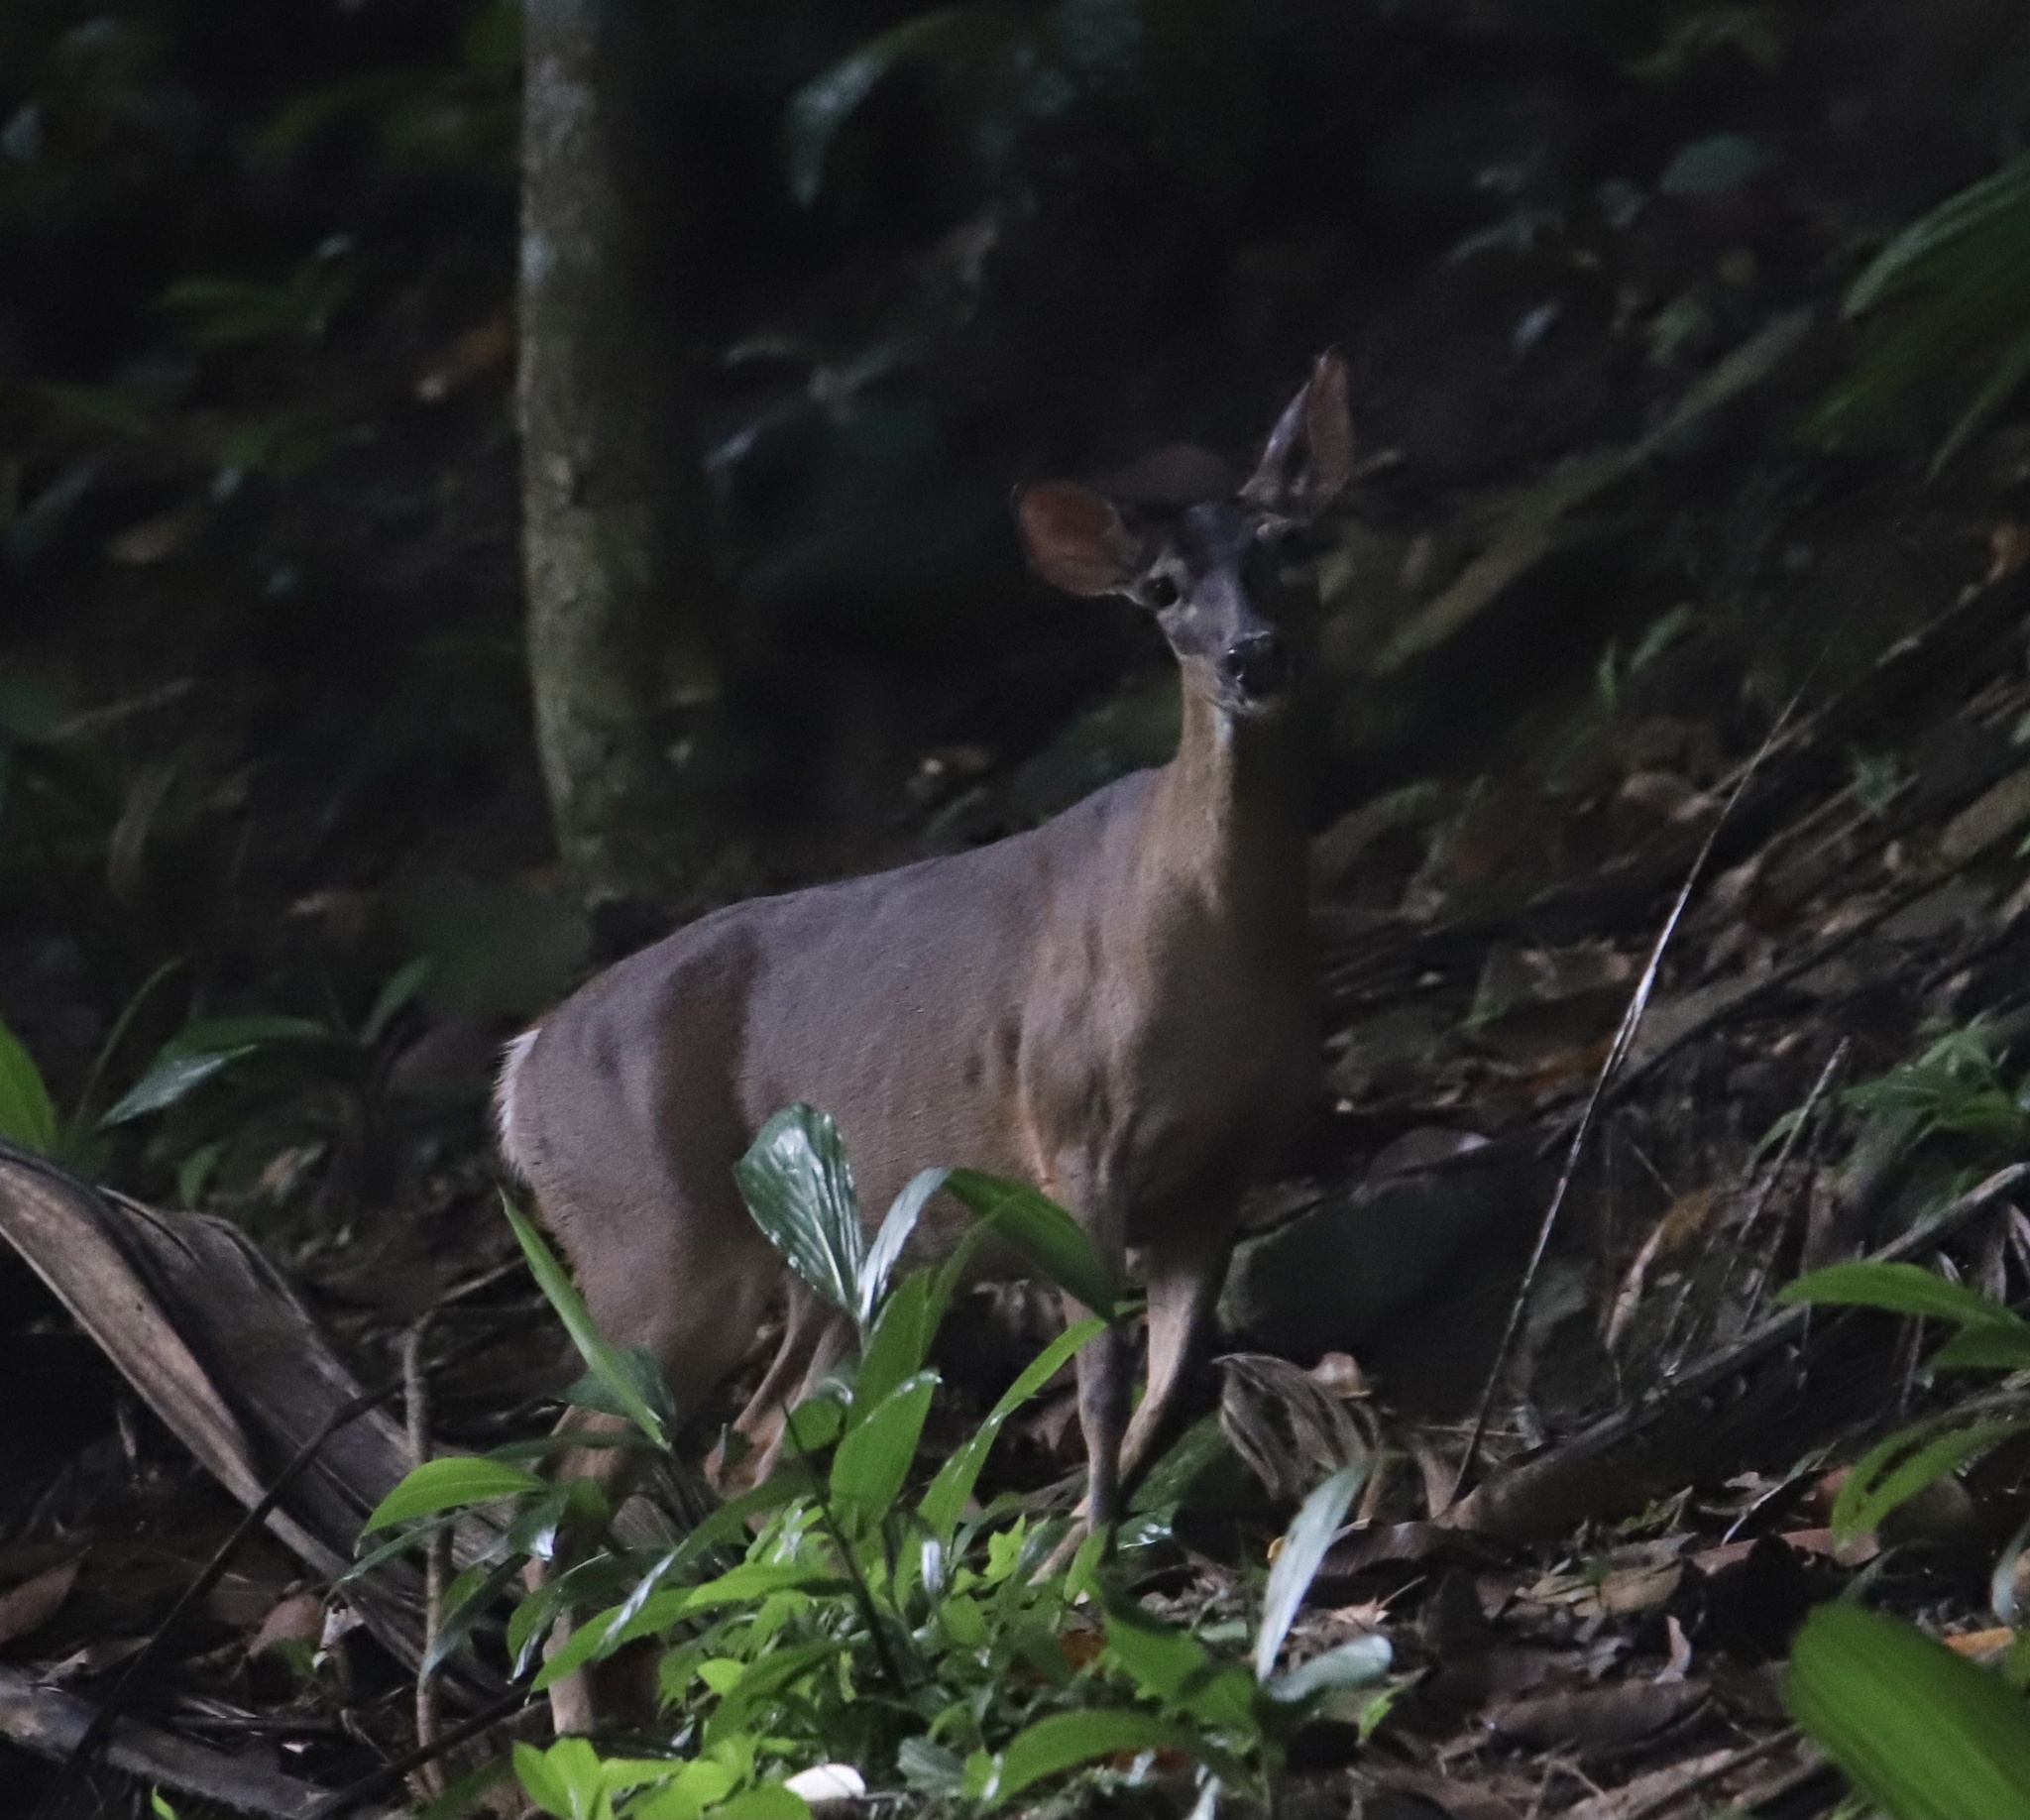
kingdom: Animalia
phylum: Chordata
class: Mammalia
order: Artiodactyla
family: Cervidae
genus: Odocoileus
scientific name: Odocoileus virginianus
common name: White-tailed deer
